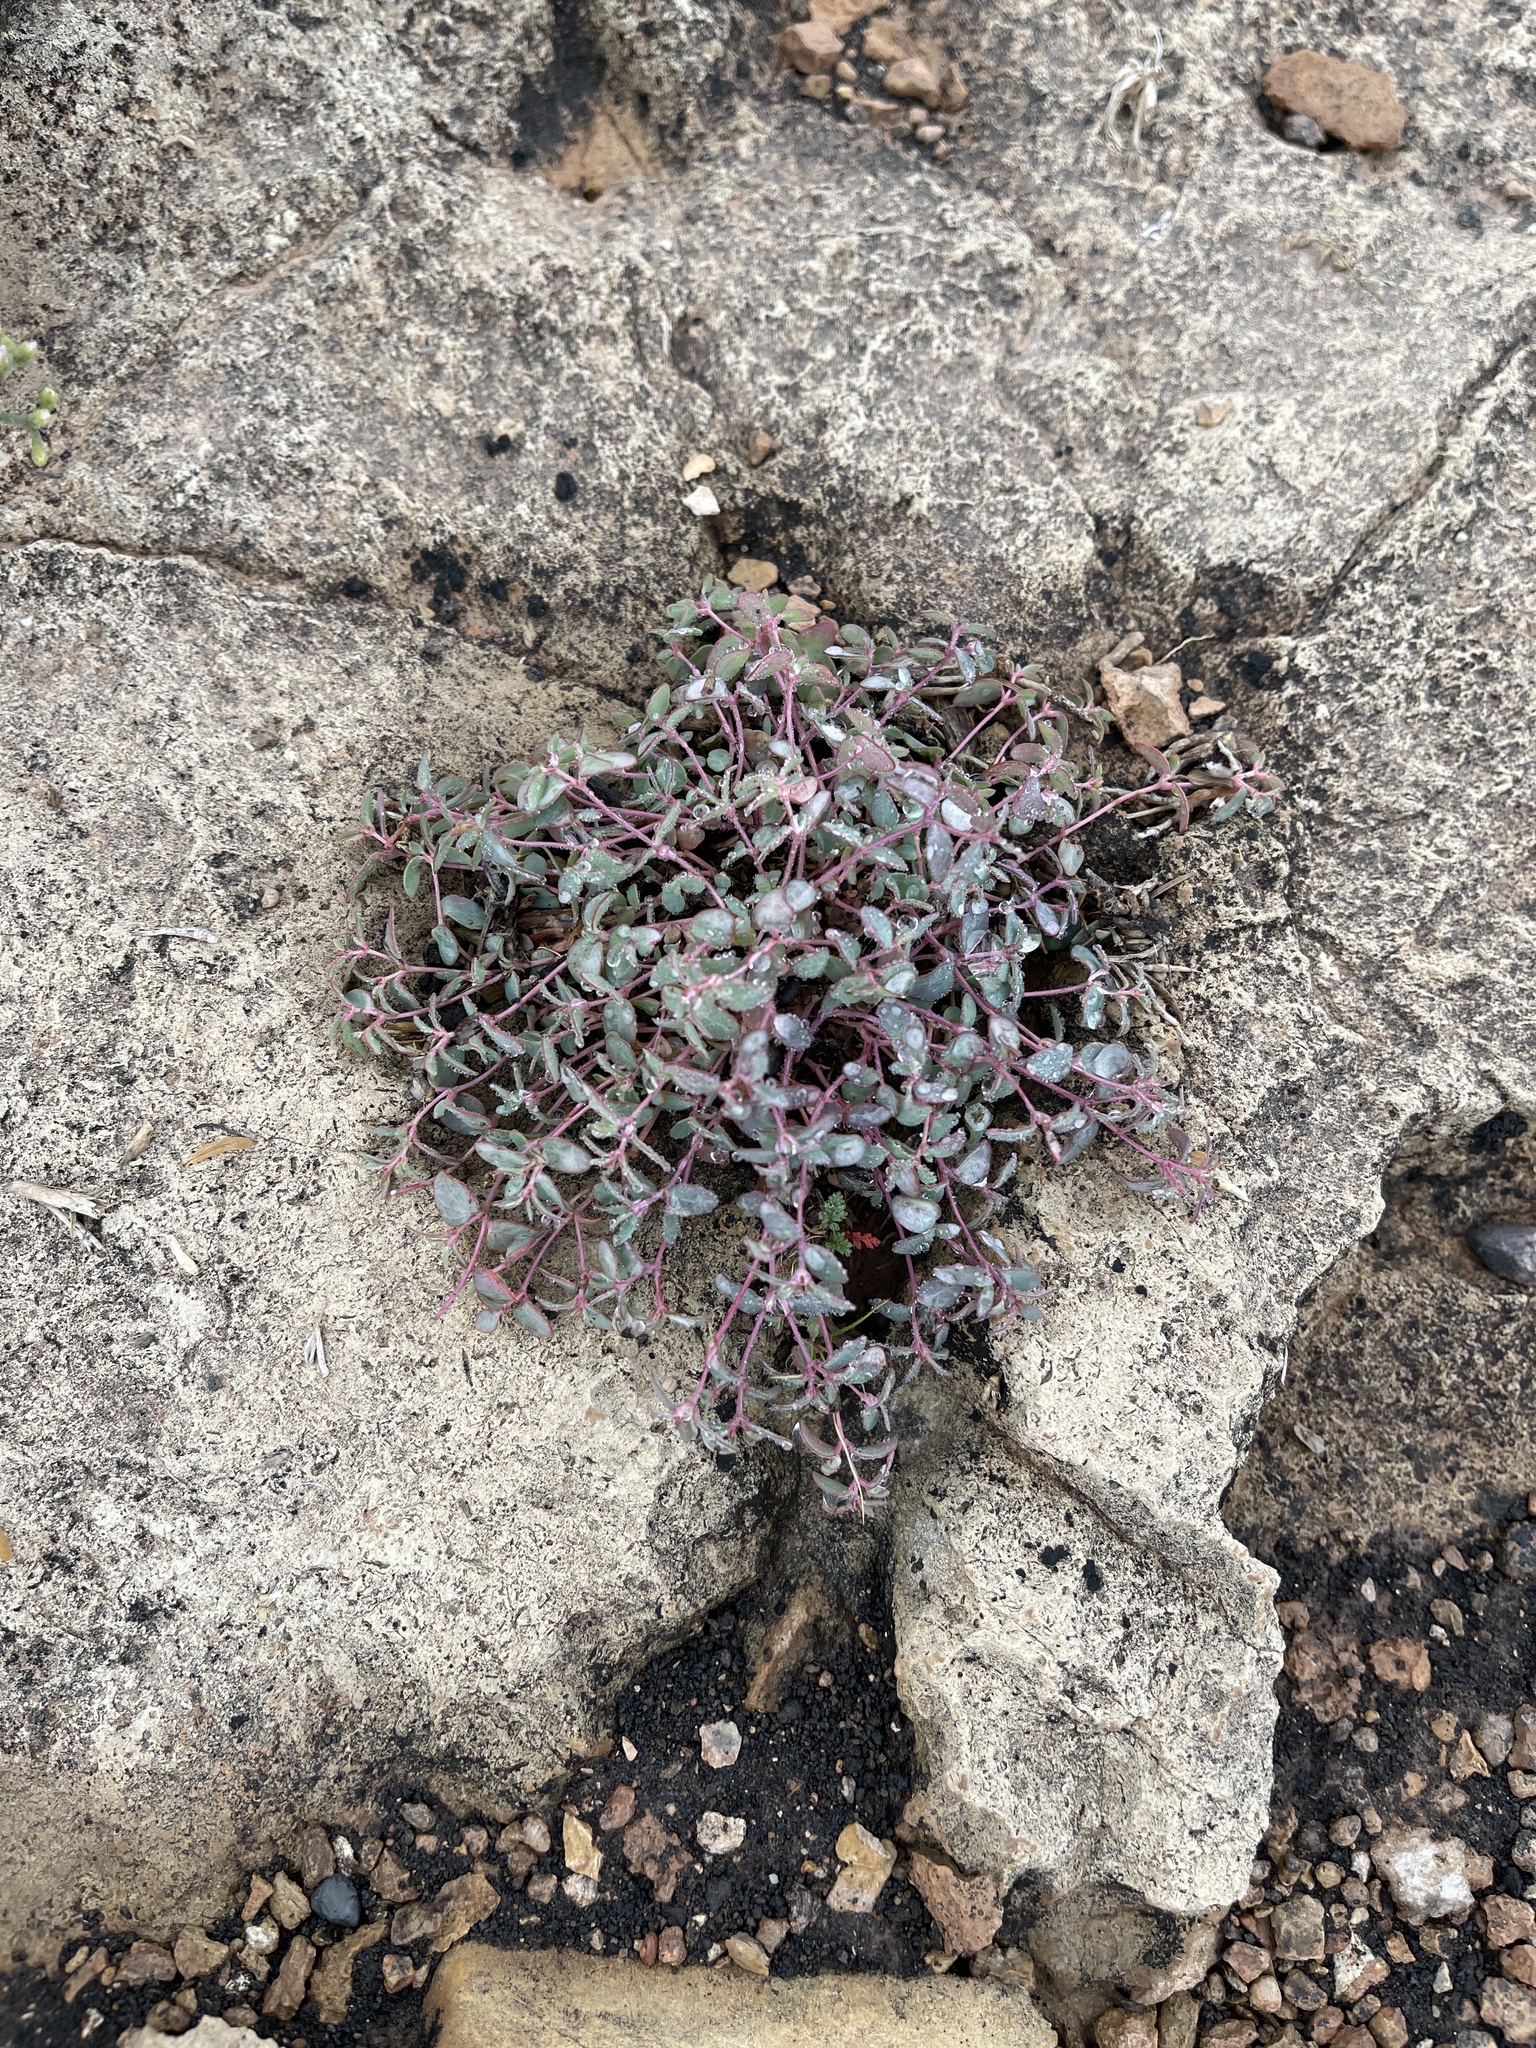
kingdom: Plantae
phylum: Tracheophyta
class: Magnoliopsida
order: Malpighiales
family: Euphorbiaceae
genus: Euphorbia
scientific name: Euphorbia fendleri
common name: Fendler's euphorbia
